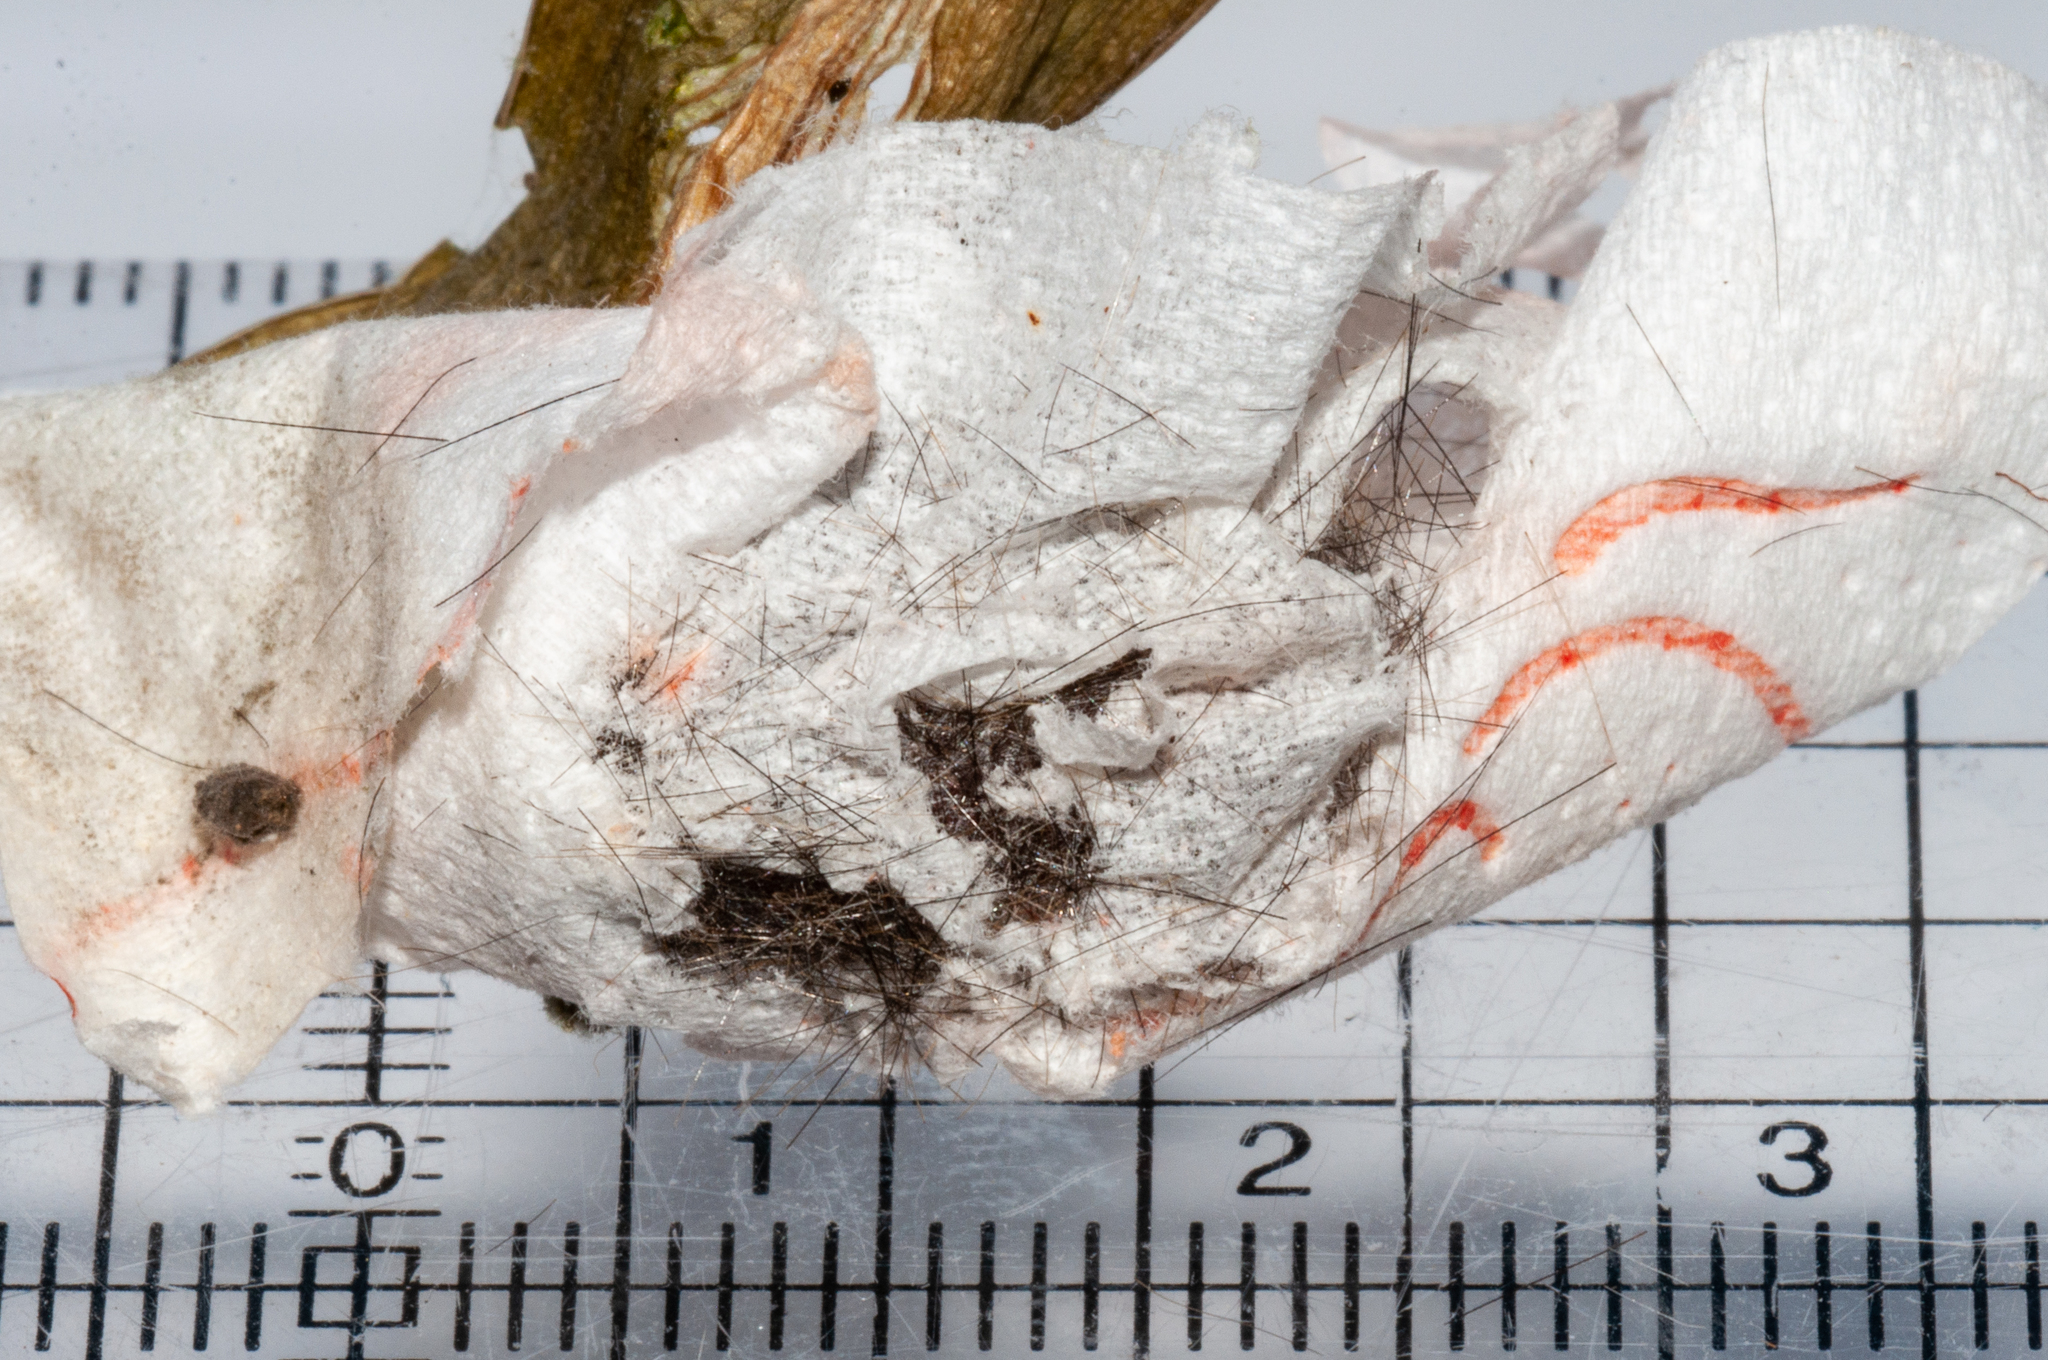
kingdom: Animalia
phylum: Arthropoda
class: Insecta
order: Lepidoptera
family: Erebidae
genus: Paralacydes
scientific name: Paralacydes vocula
